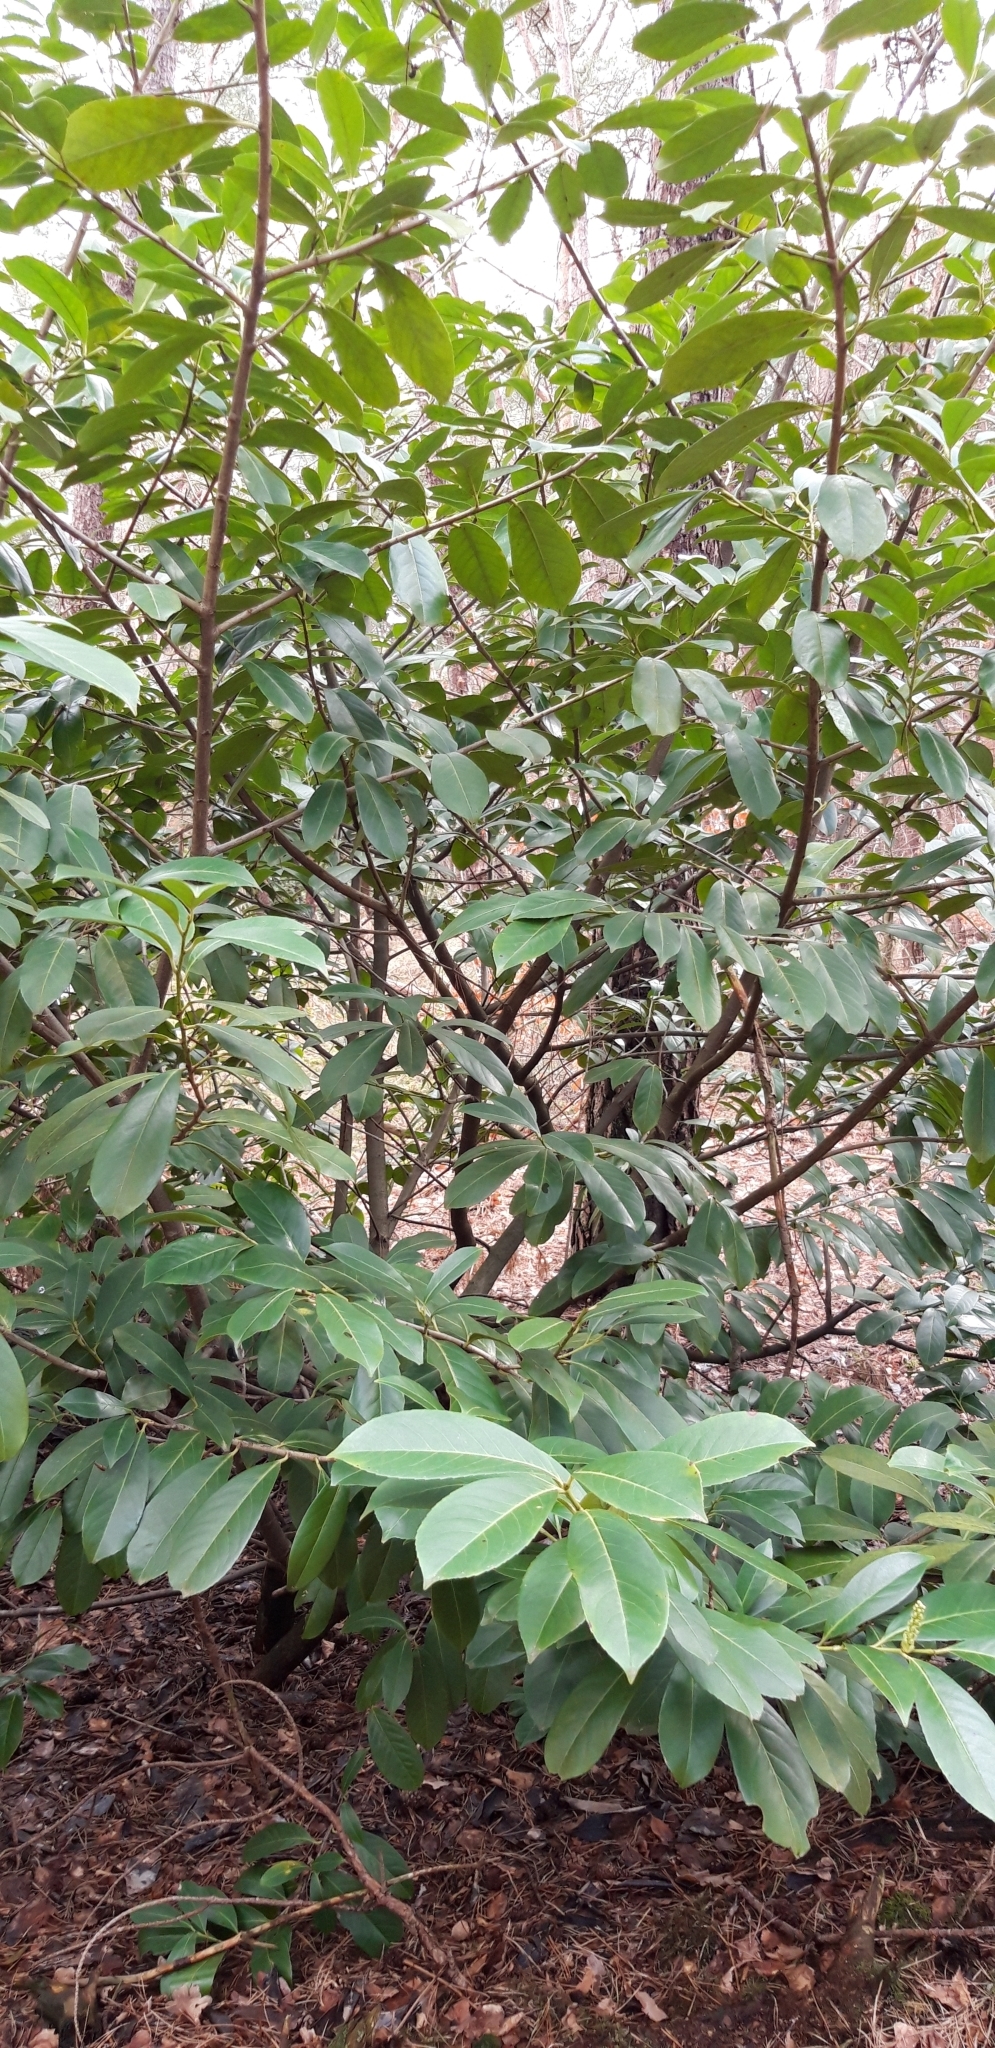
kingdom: Plantae
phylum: Tracheophyta
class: Magnoliopsida
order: Rosales
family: Rosaceae
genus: Prunus
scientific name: Prunus laurocerasus
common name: Cherry laurel
